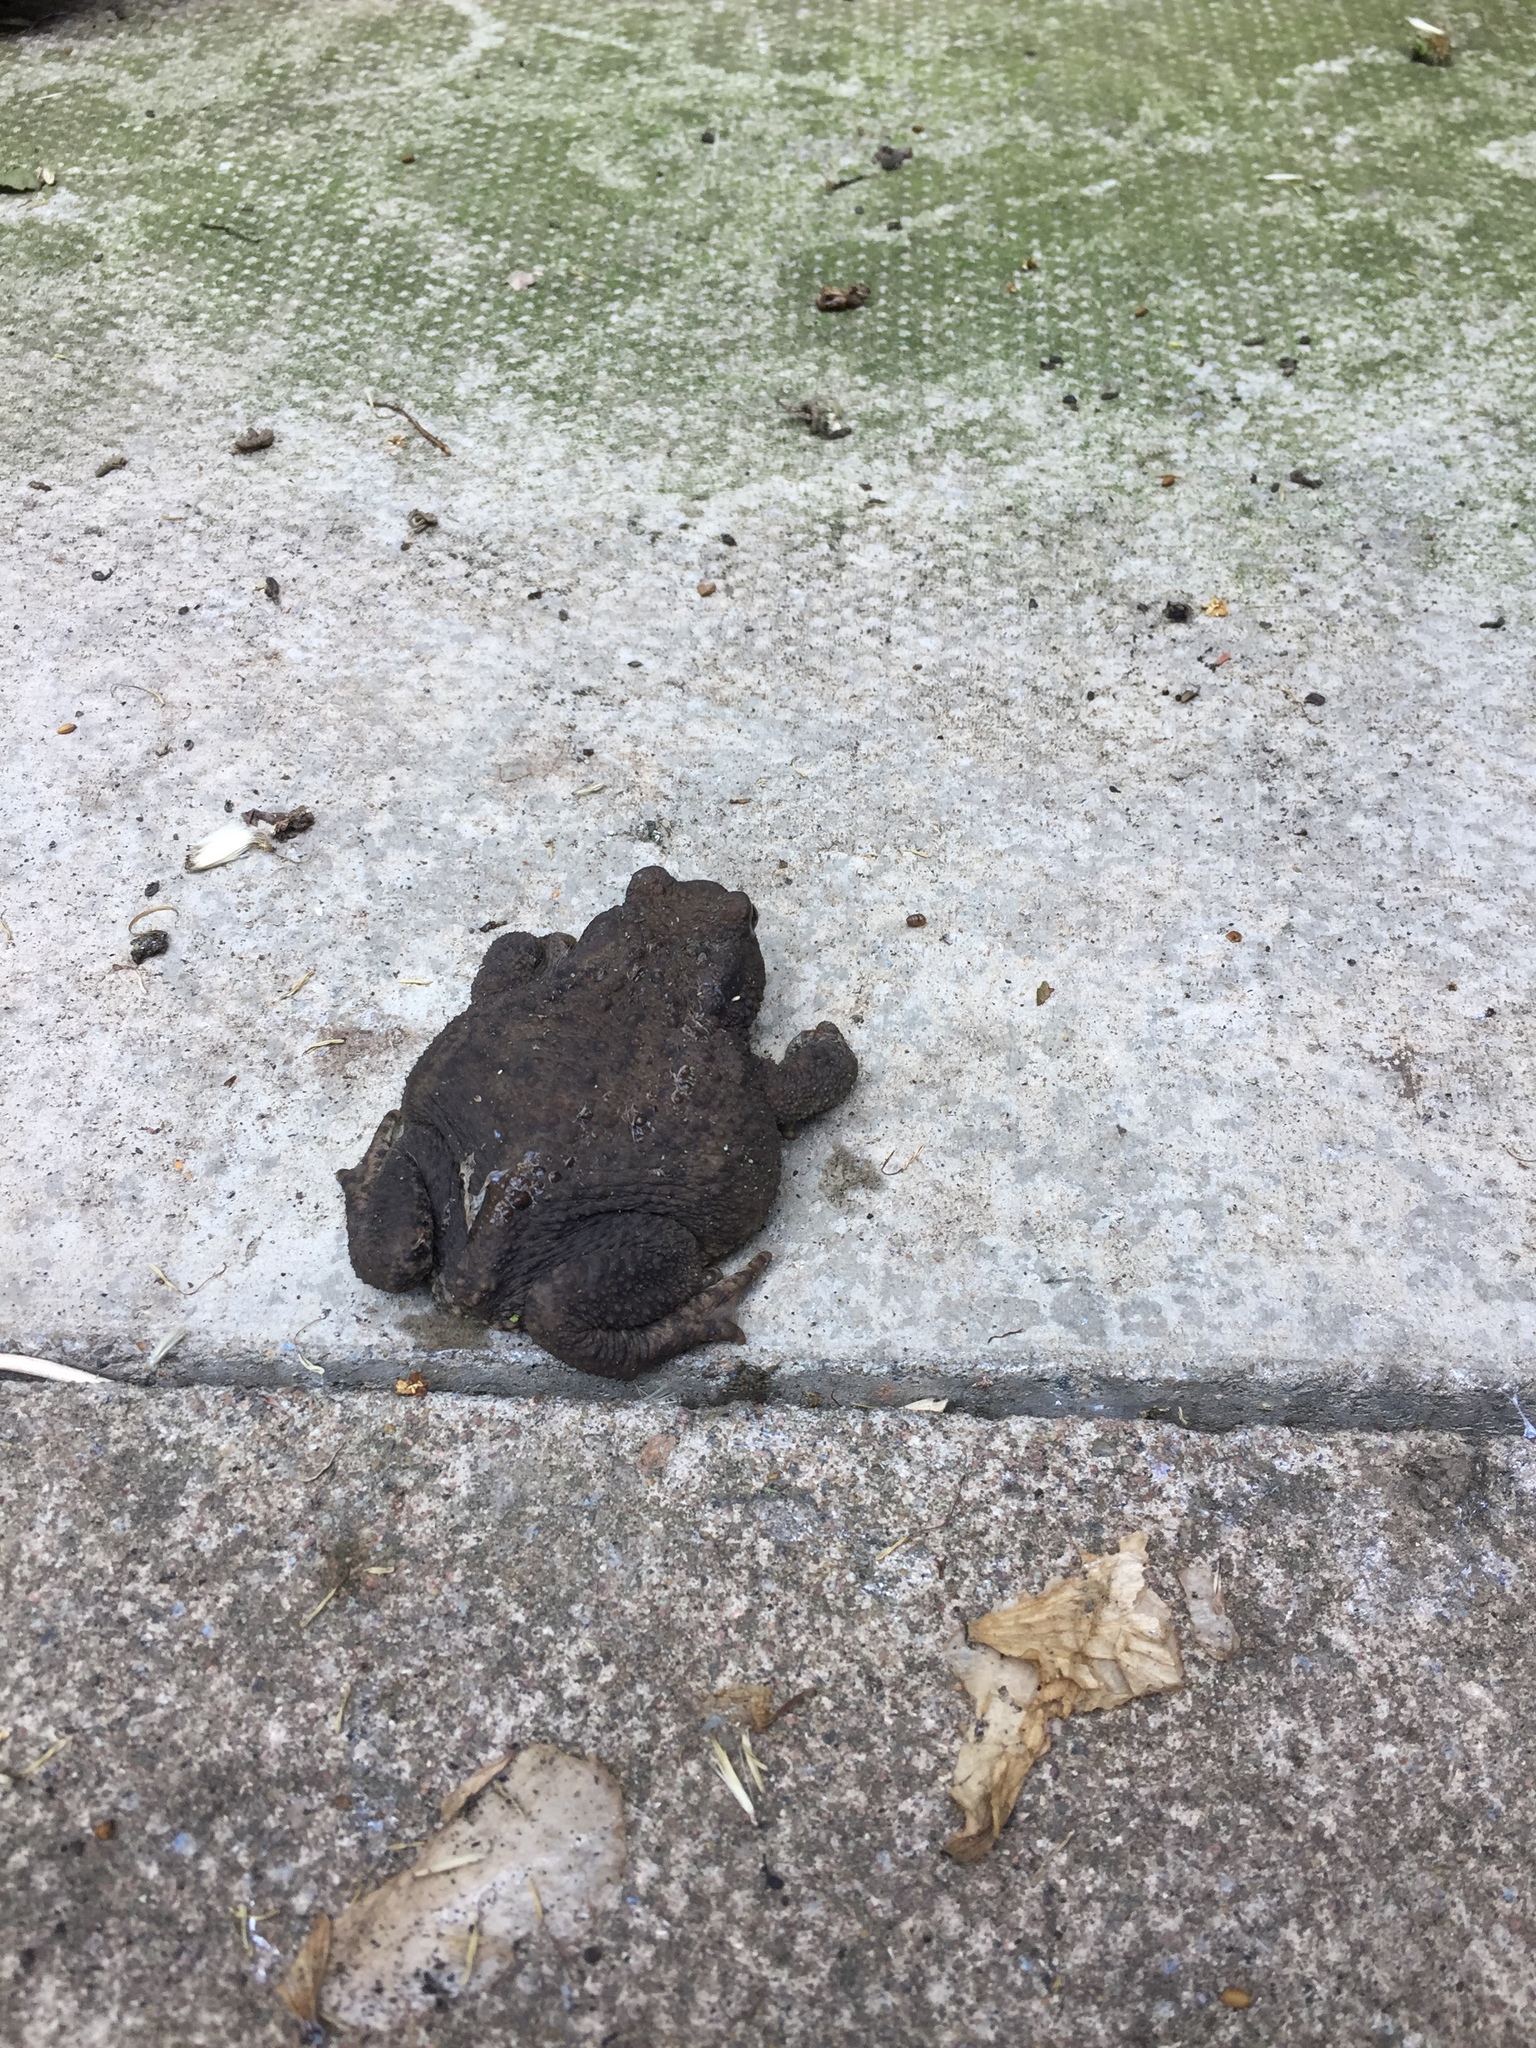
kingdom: Animalia
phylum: Chordata
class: Amphibia
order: Anura
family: Bufonidae
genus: Bufo
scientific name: Bufo bufo
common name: Common toad
